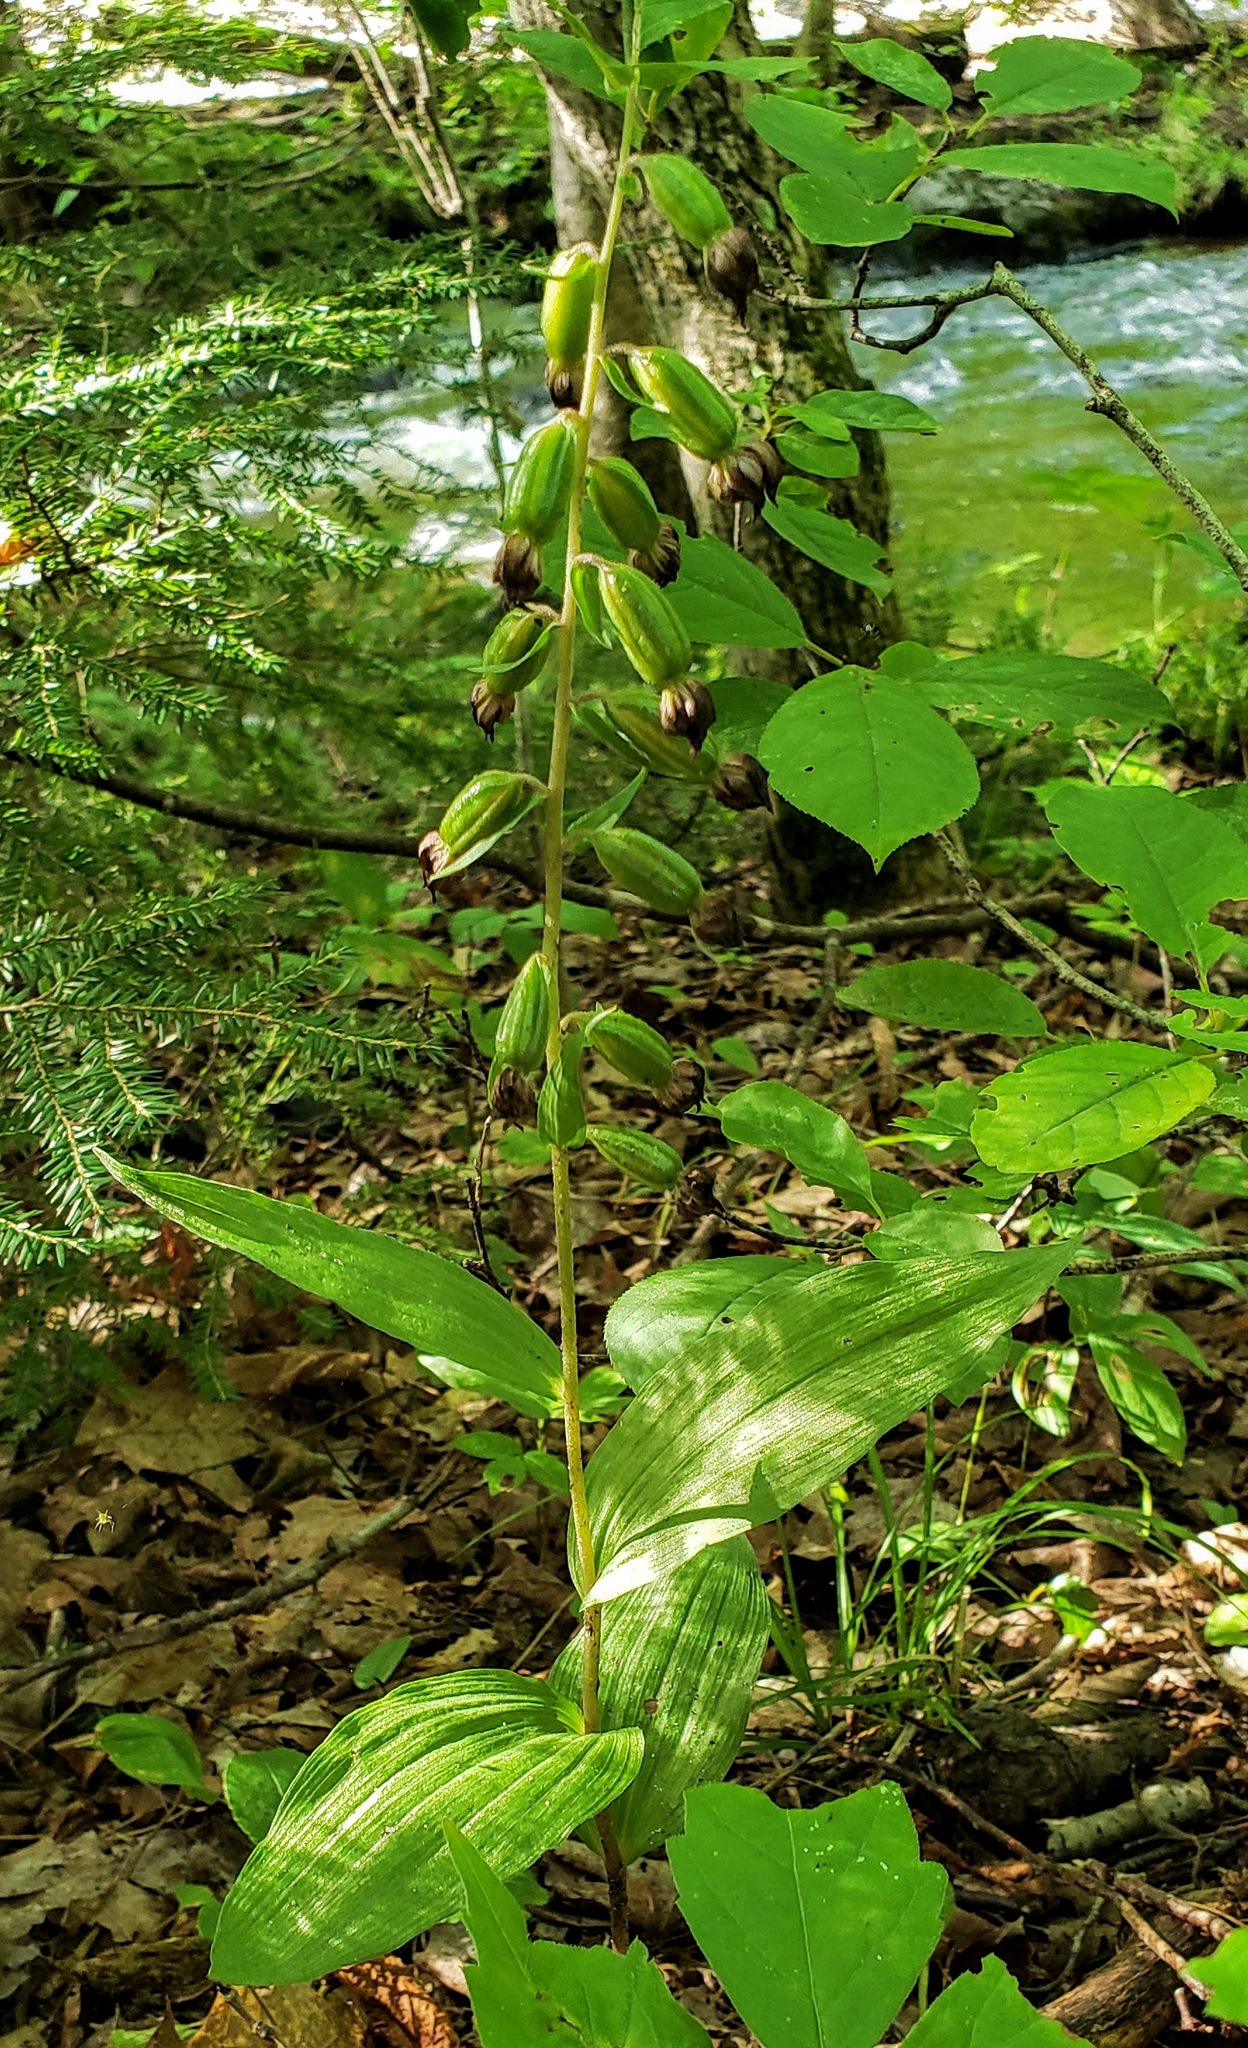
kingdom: Plantae
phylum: Tracheophyta
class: Liliopsida
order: Asparagales
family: Orchidaceae
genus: Epipactis
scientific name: Epipactis helleborine
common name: Broad-leaved helleborine
